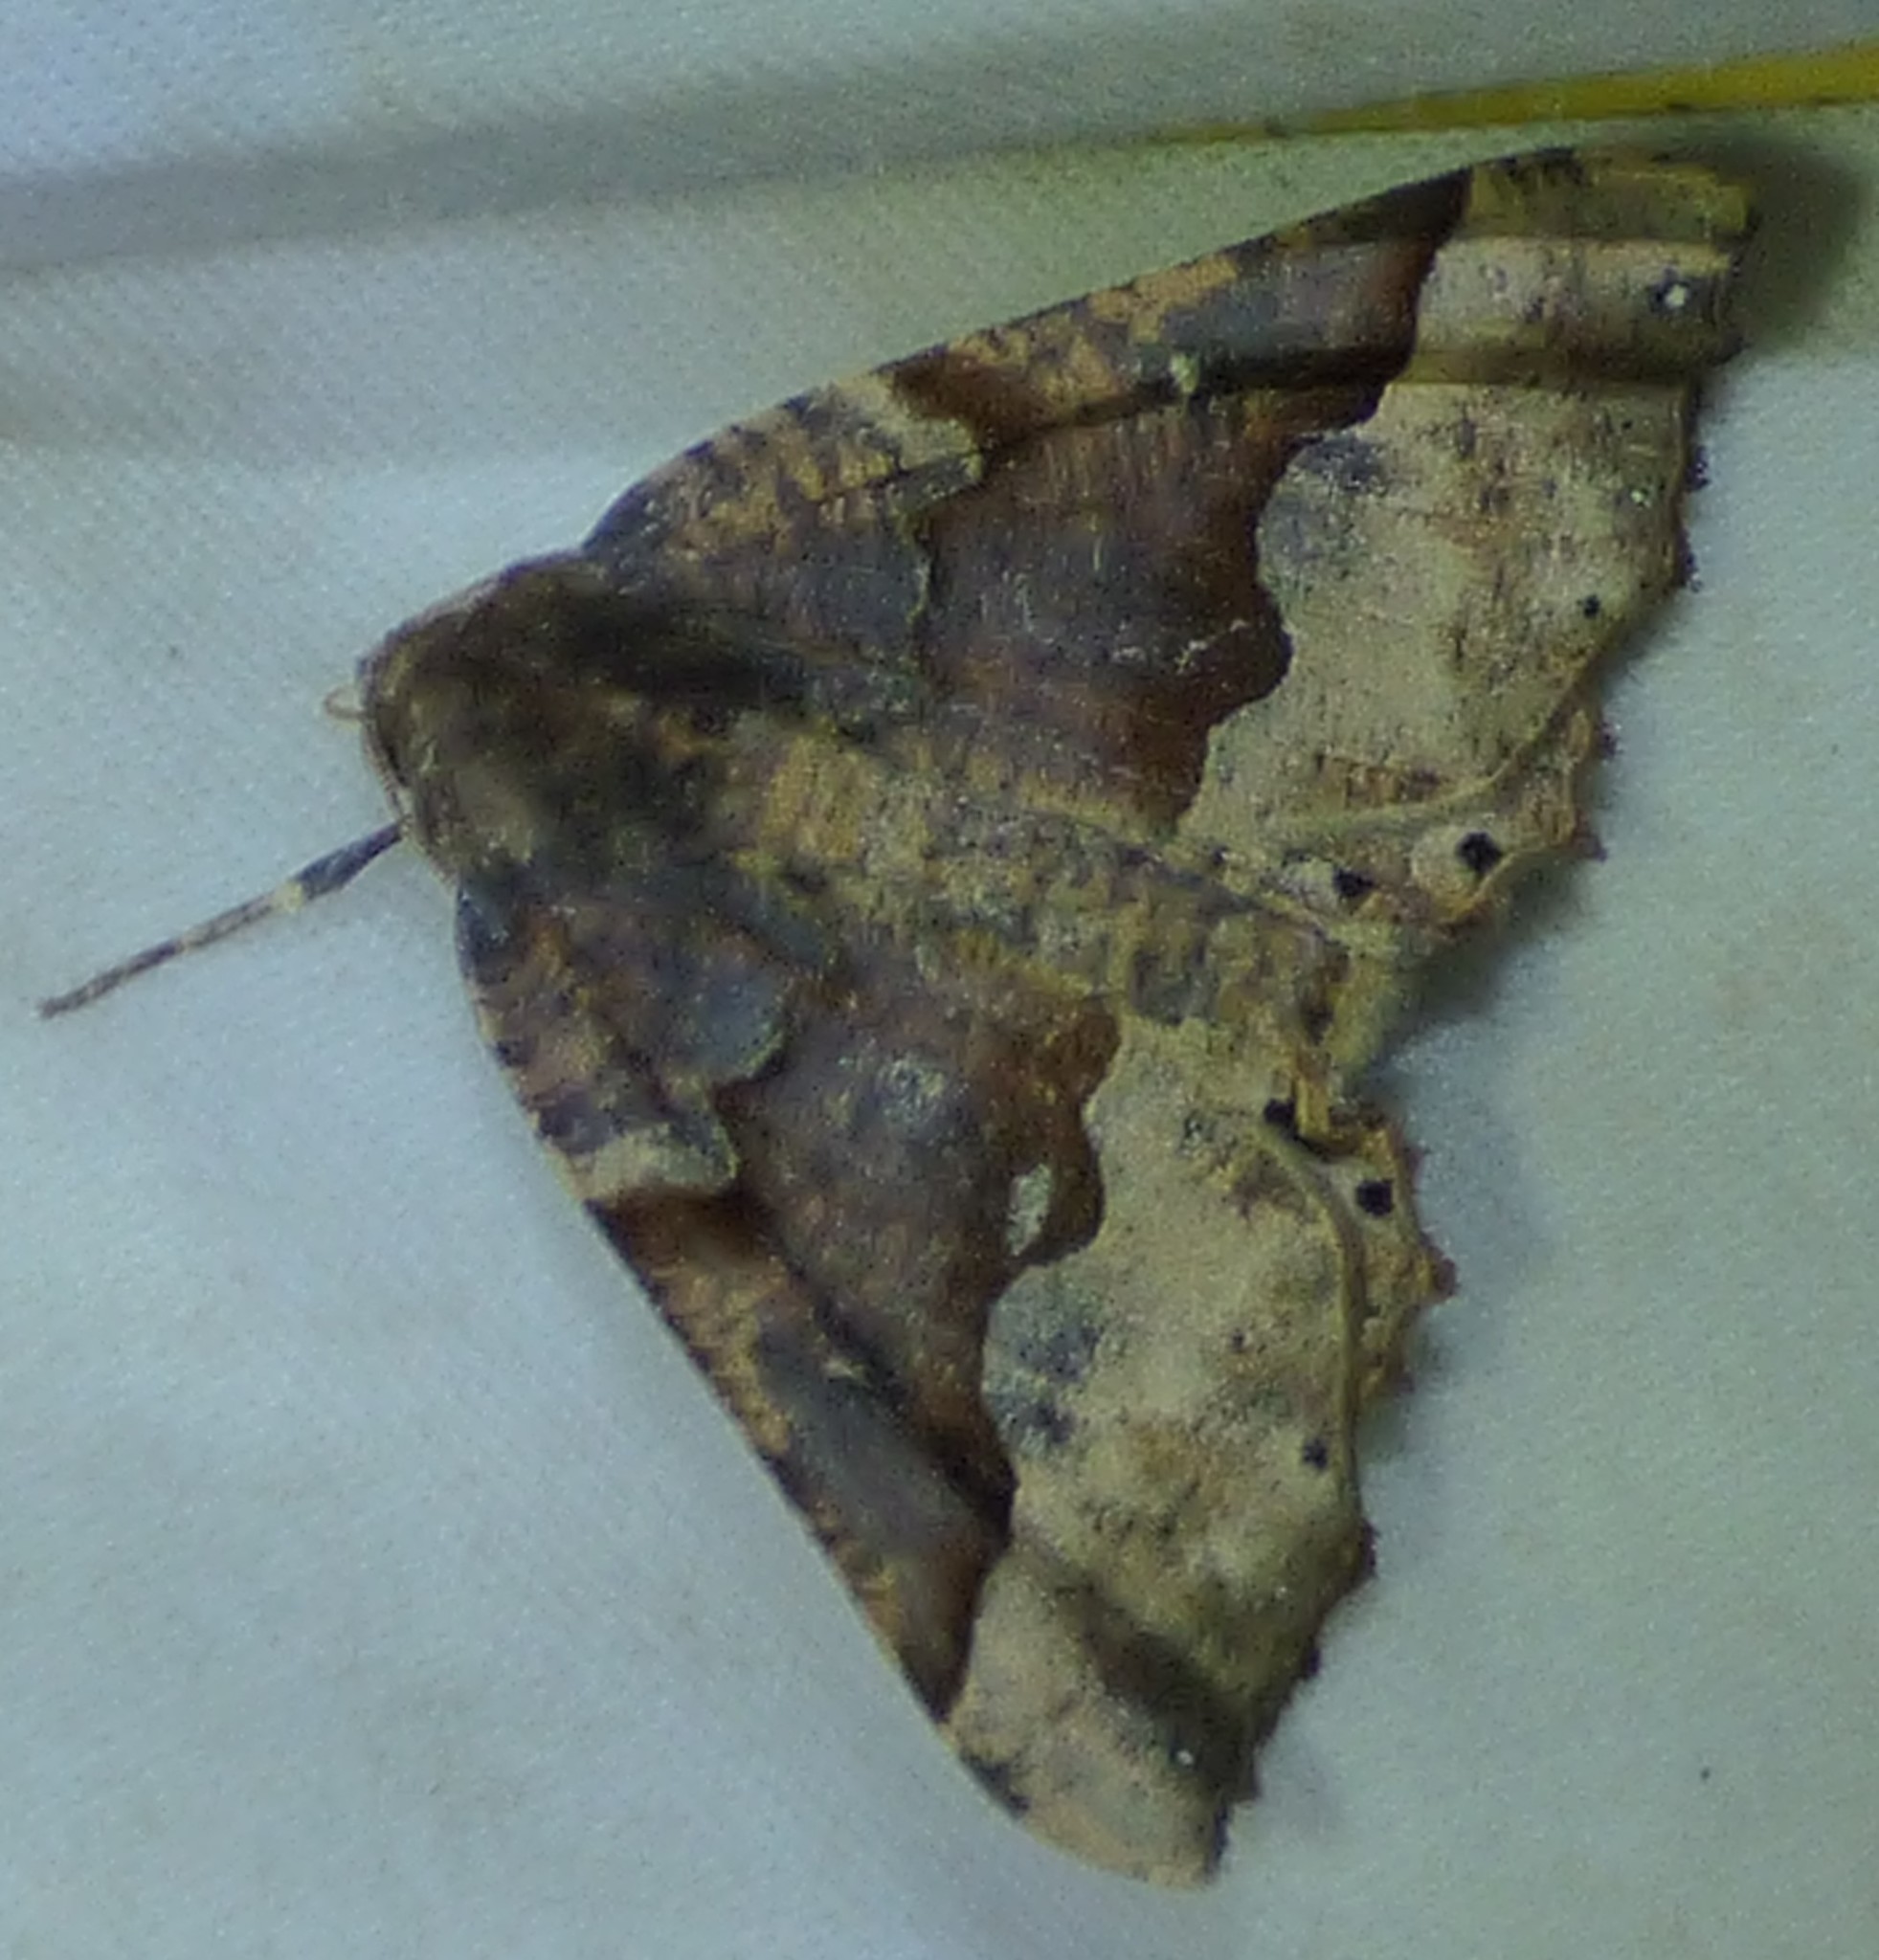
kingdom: Animalia
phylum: Arthropoda
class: Insecta
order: Lepidoptera
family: Geometridae
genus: Pero
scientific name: Pero morrisonaria
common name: Morrison's pero
